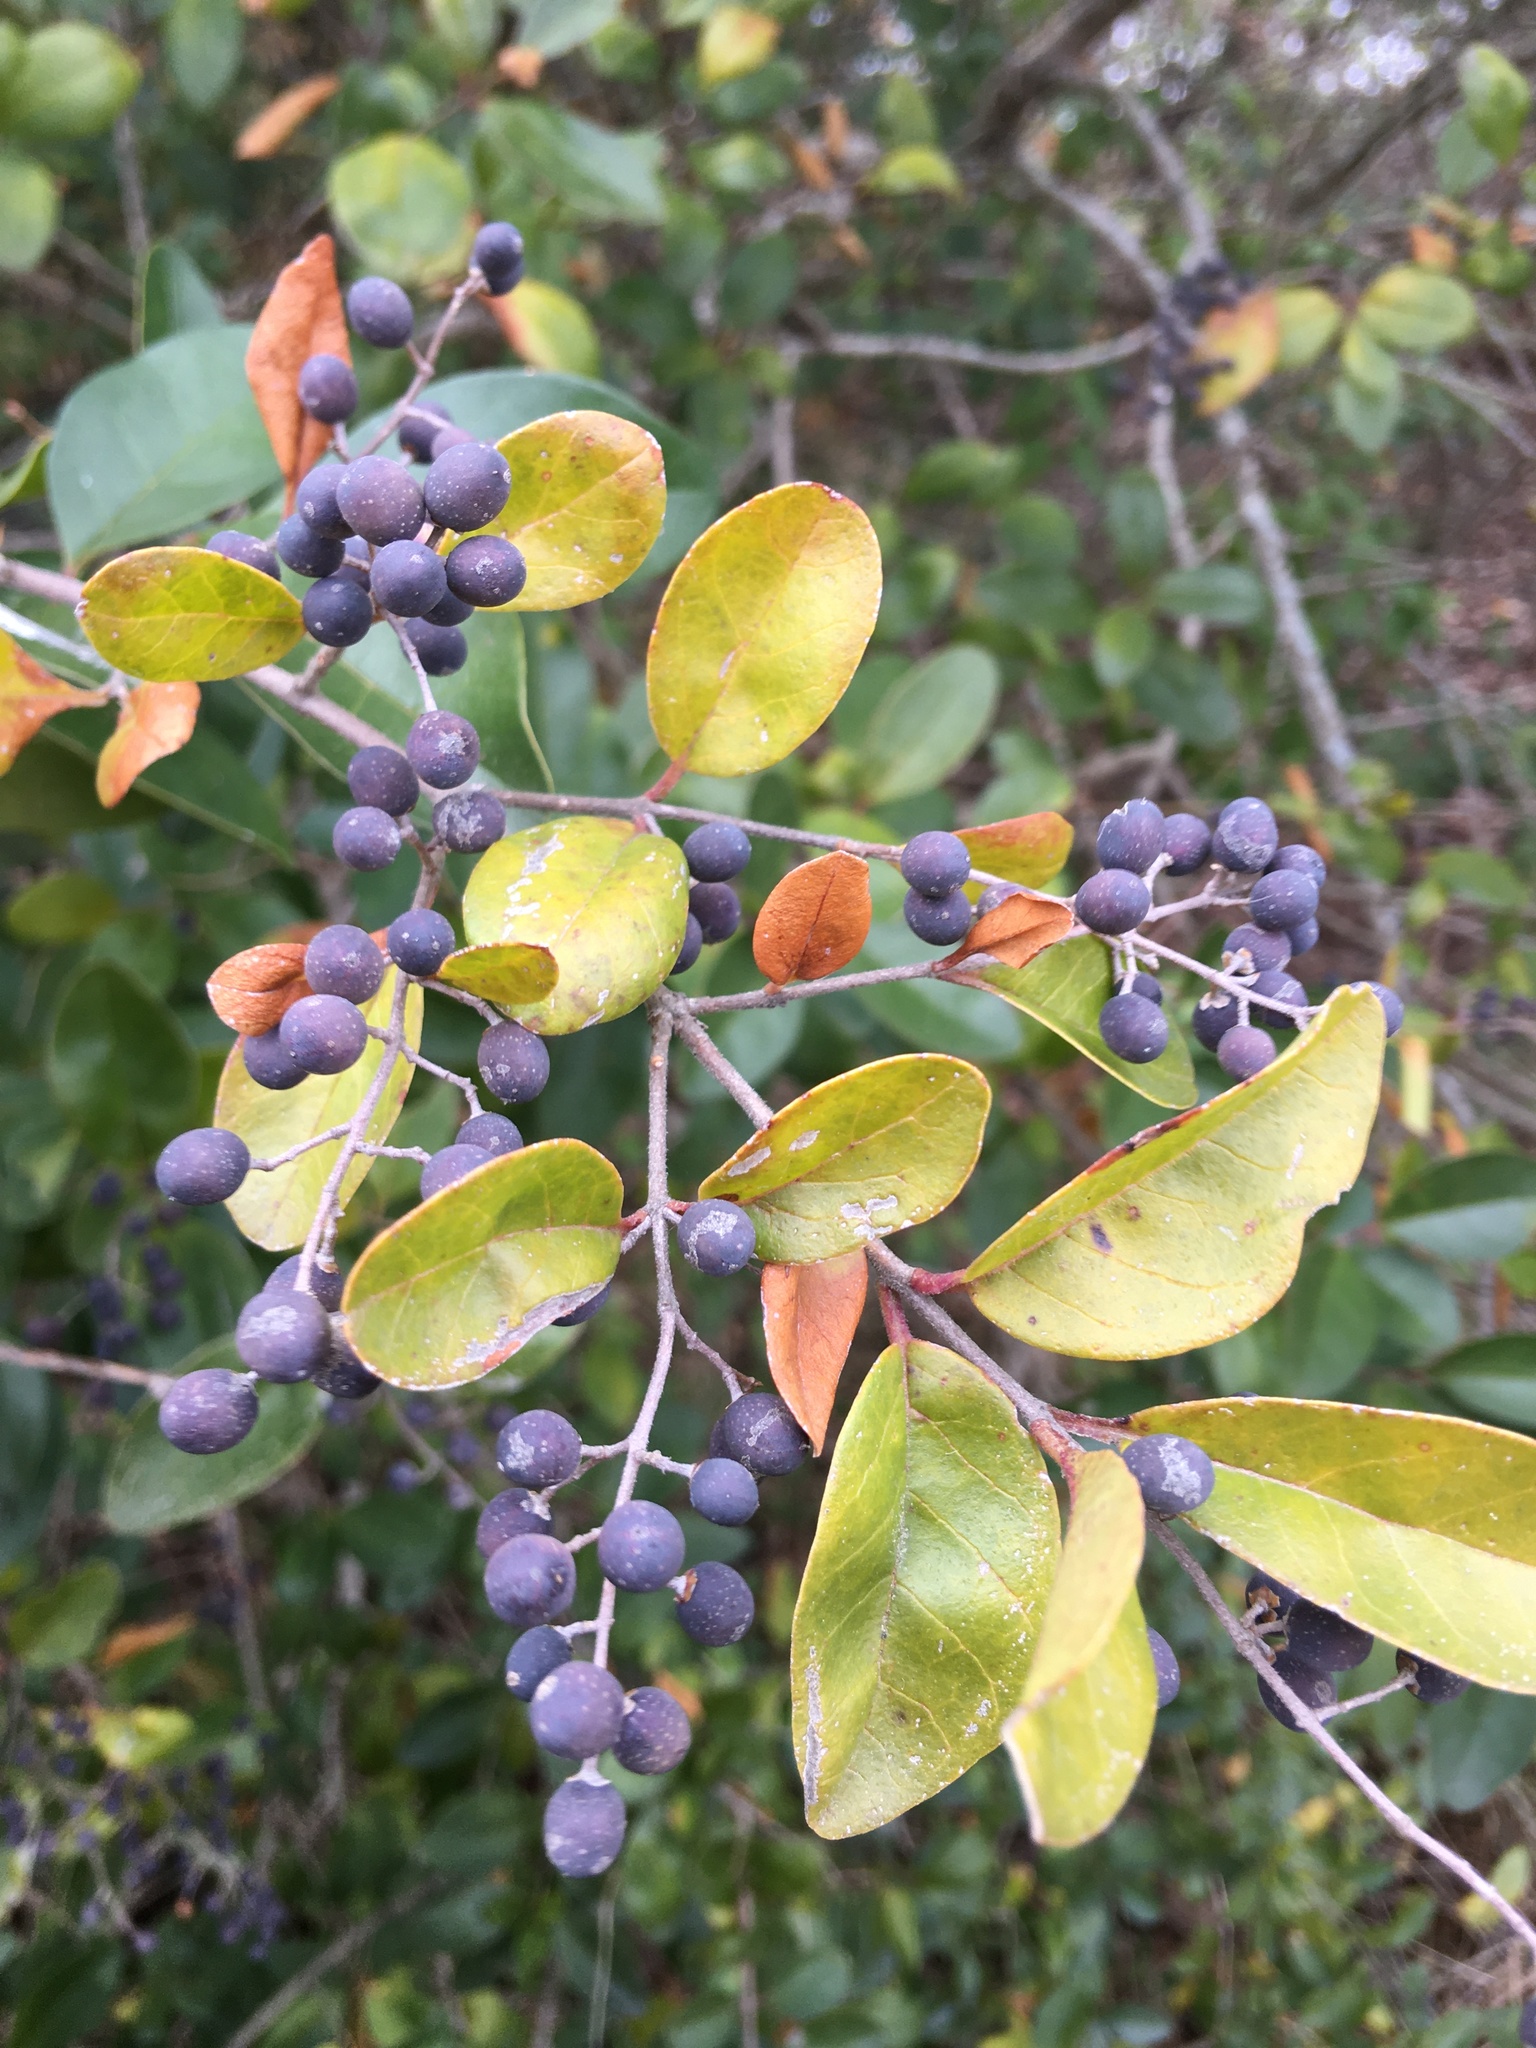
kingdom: Plantae
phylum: Tracheophyta
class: Magnoliopsida
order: Lamiales
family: Oleaceae
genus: Ligustrum
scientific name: Ligustrum sinense
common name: Chinese privet
